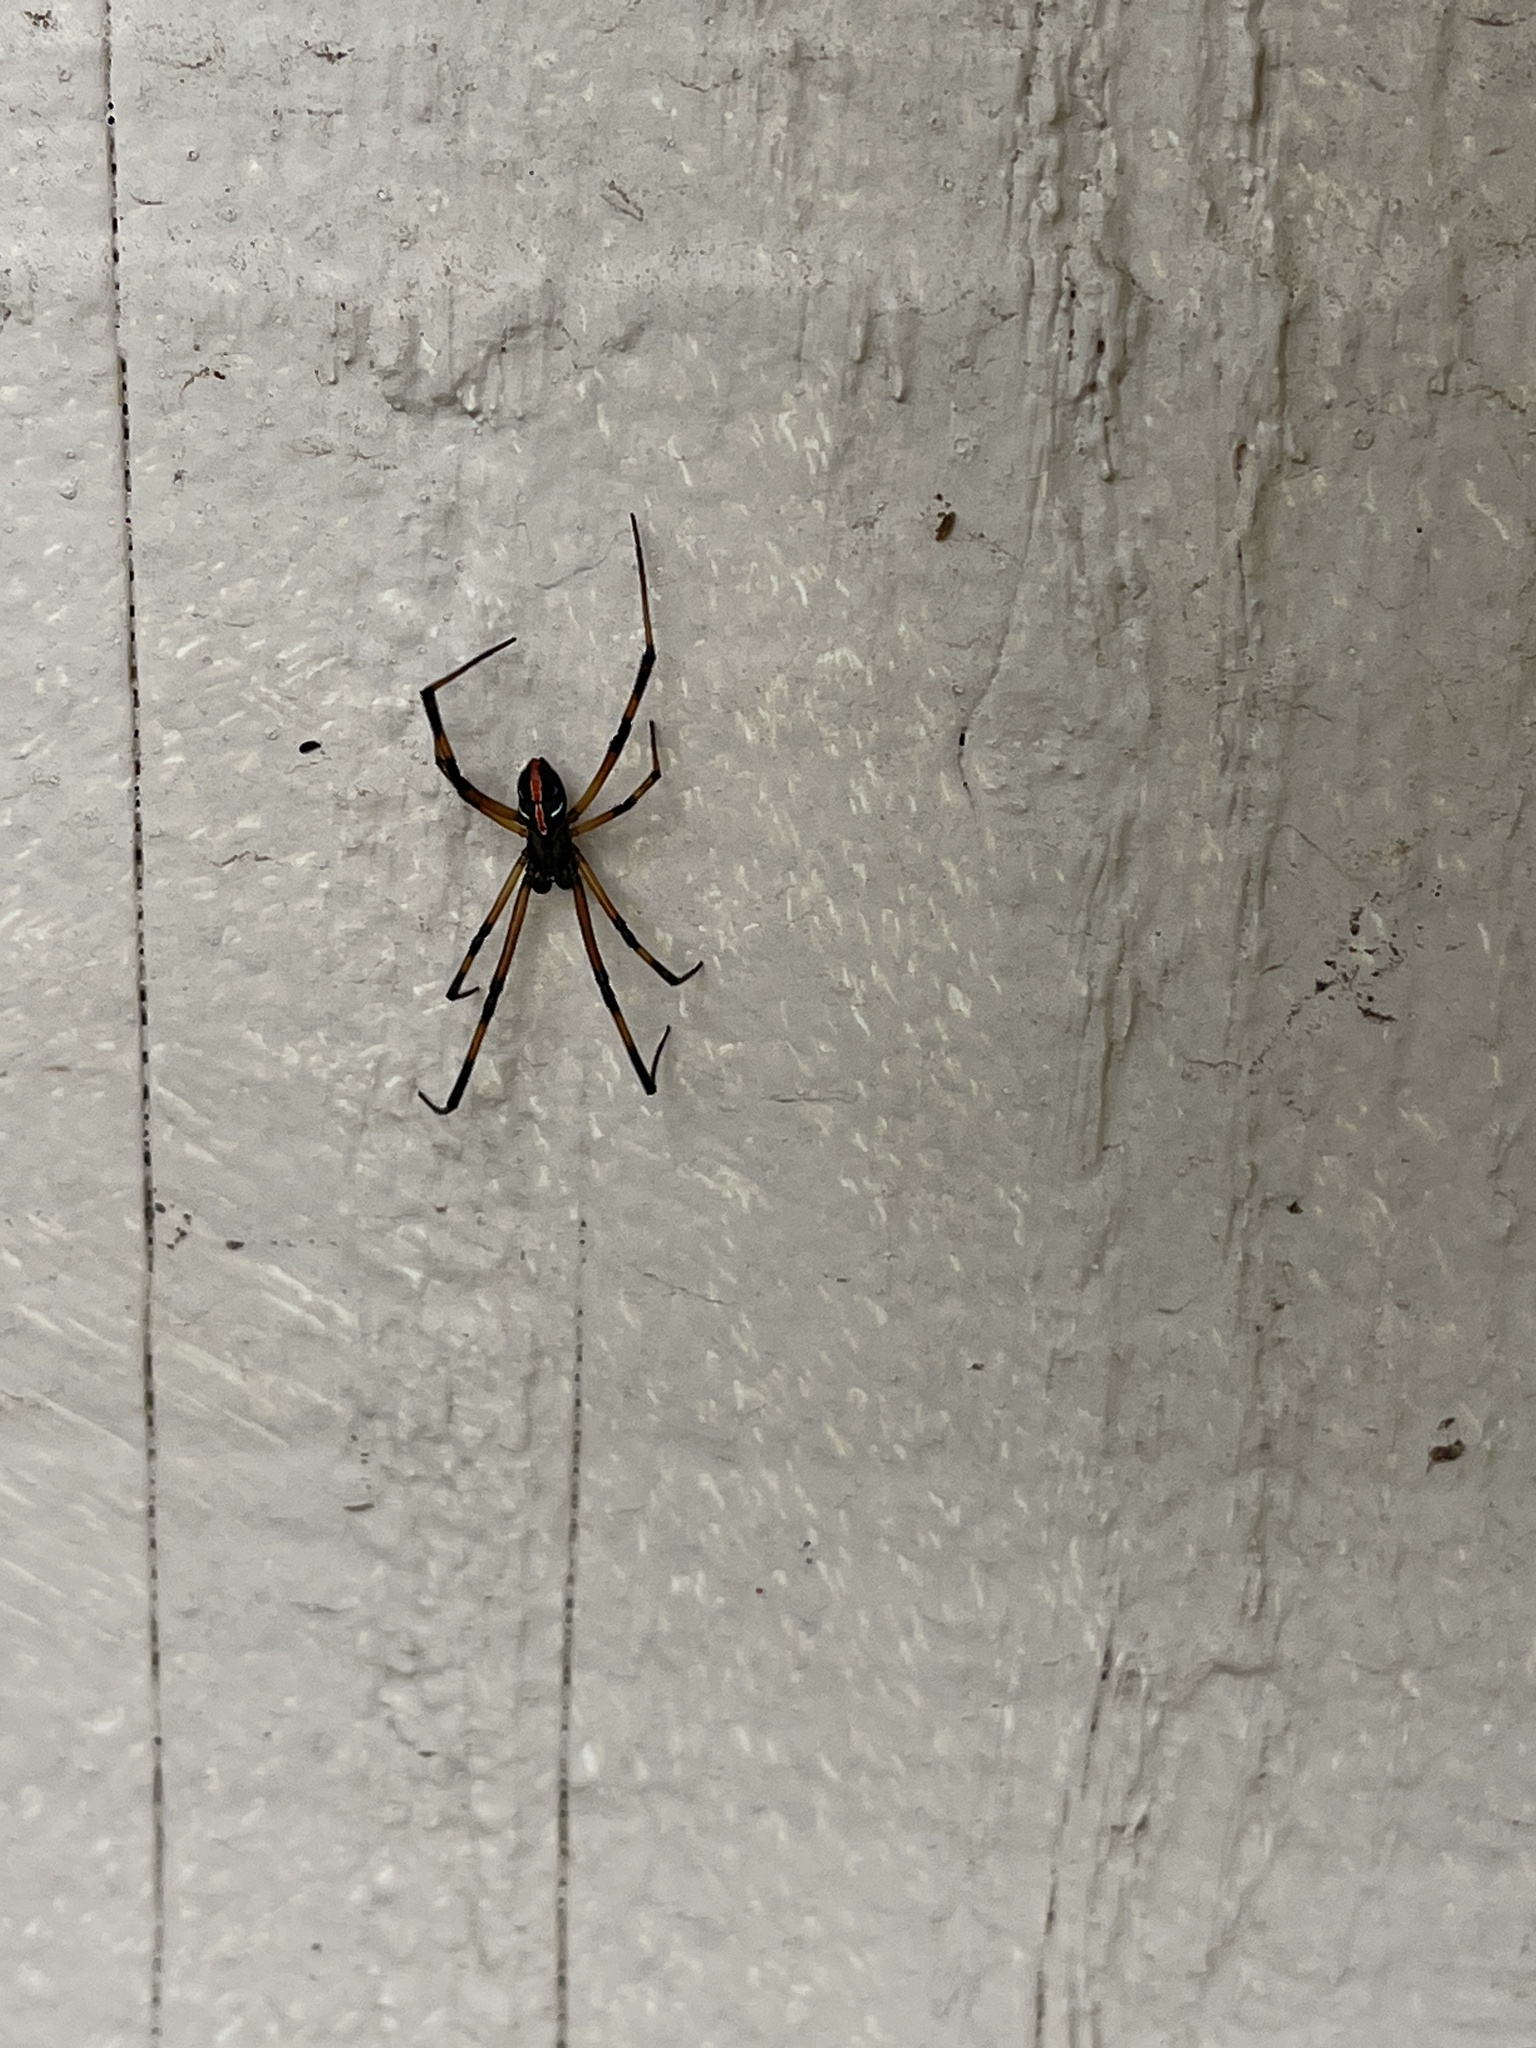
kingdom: Animalia
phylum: Arthropoda
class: Arachnida
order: Araneae
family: Theridiidae
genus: Latrodectus
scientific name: Latrodectus hesperus
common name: Western black widow
